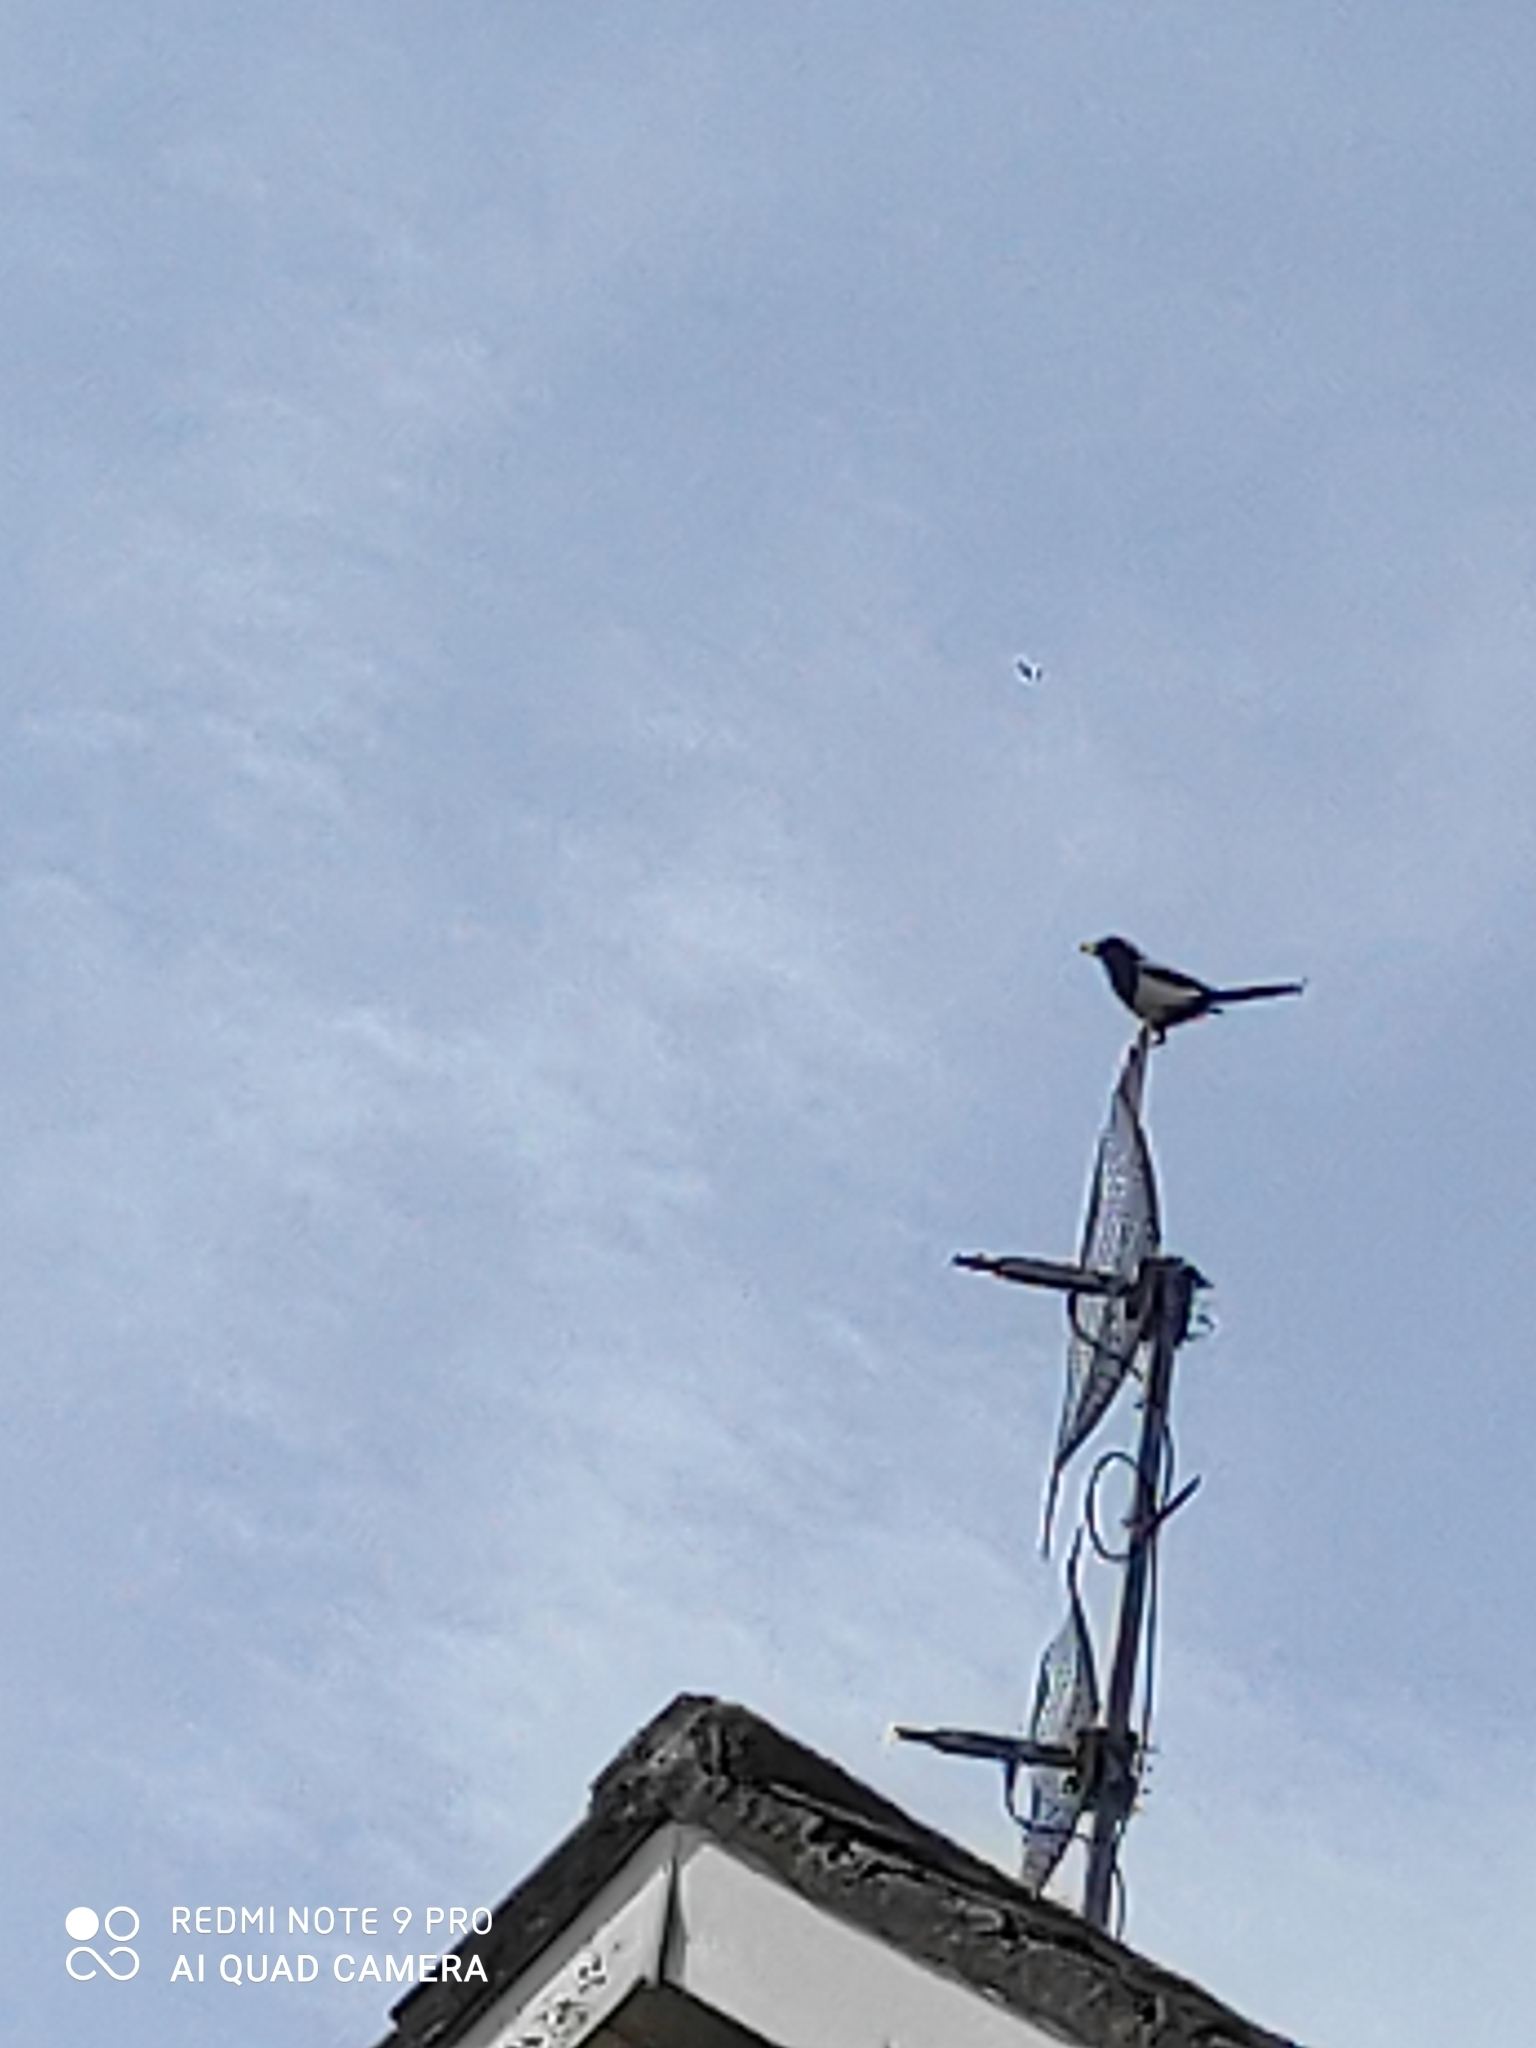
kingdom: Animalia
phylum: Chordata
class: Aves
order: Passeriformes
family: Corvidae
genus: Pica
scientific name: Pica pica
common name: Eurasian magpie
